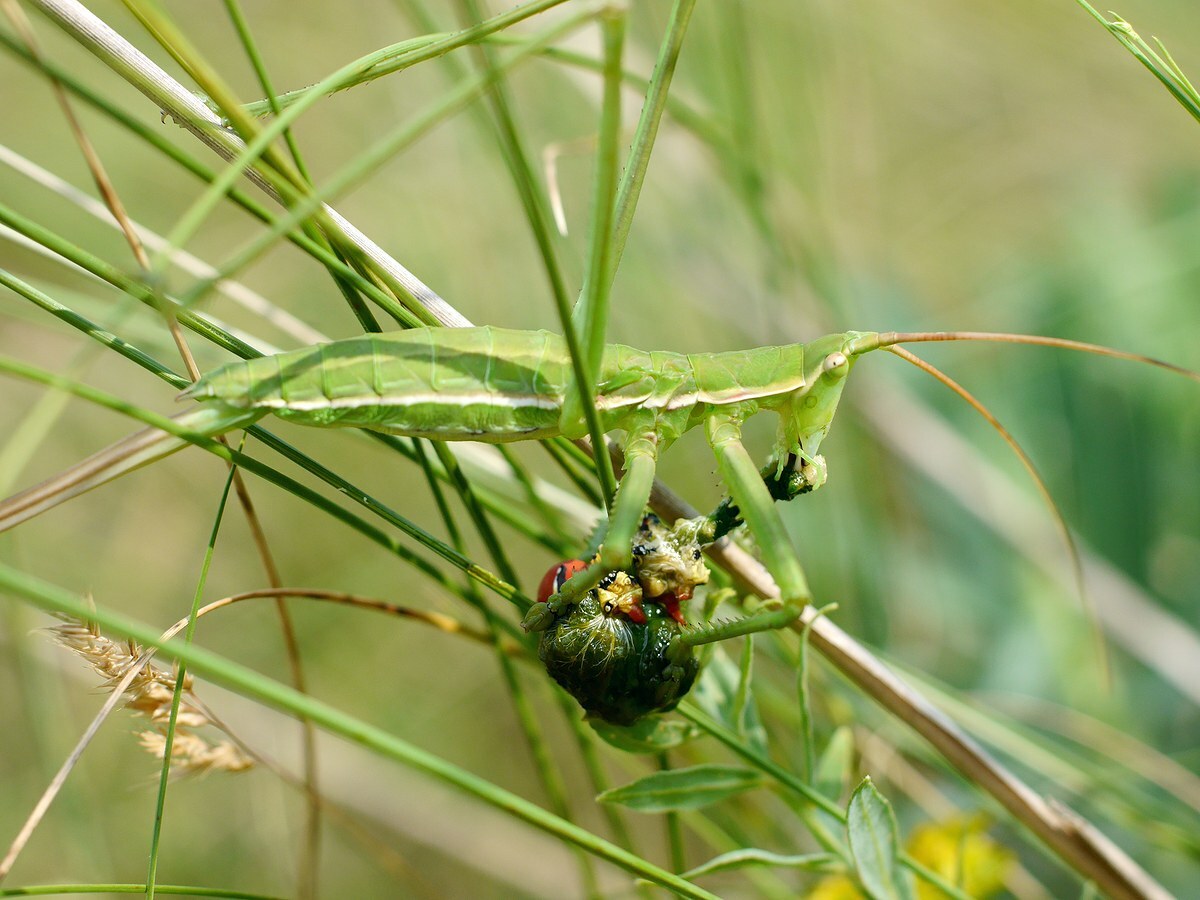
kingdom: Animalia
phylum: Arthropoda
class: Insecta
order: Orthoptera
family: Tettigoniidae
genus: Saga
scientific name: Saga pedo
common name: Common predatory bush-cricket
